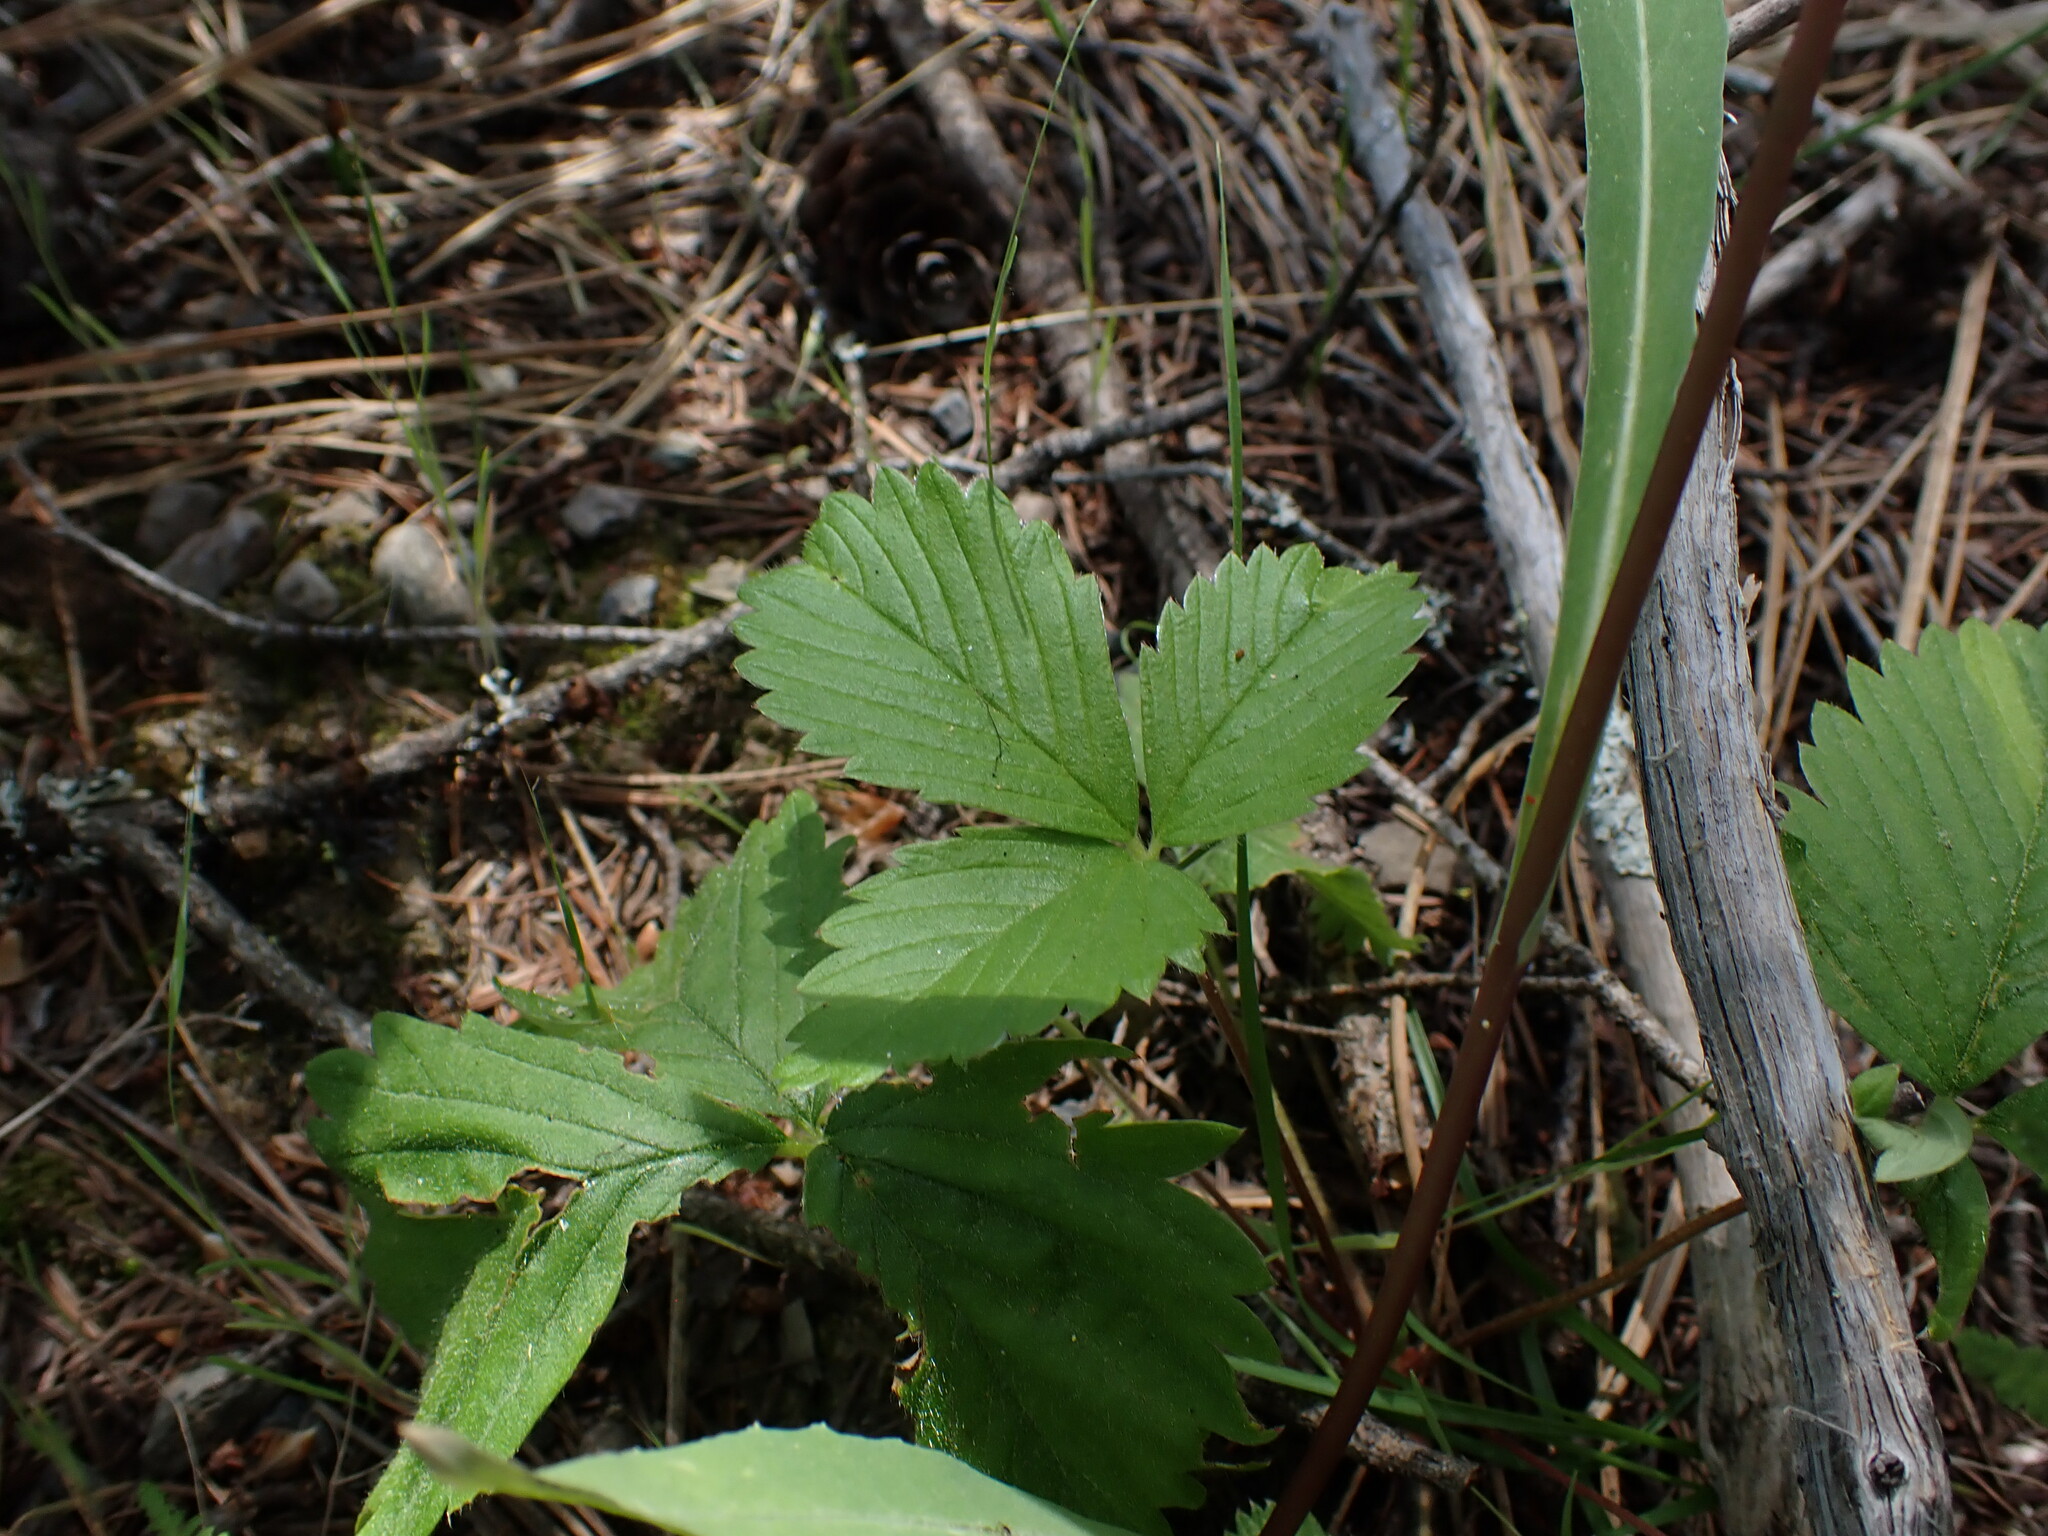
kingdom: Plantae
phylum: Tracheophyta
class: Magnoliopsida
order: Rosales
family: Rosaceae
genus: Fragaria
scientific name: Fragaria vesca
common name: Wild strawberry
